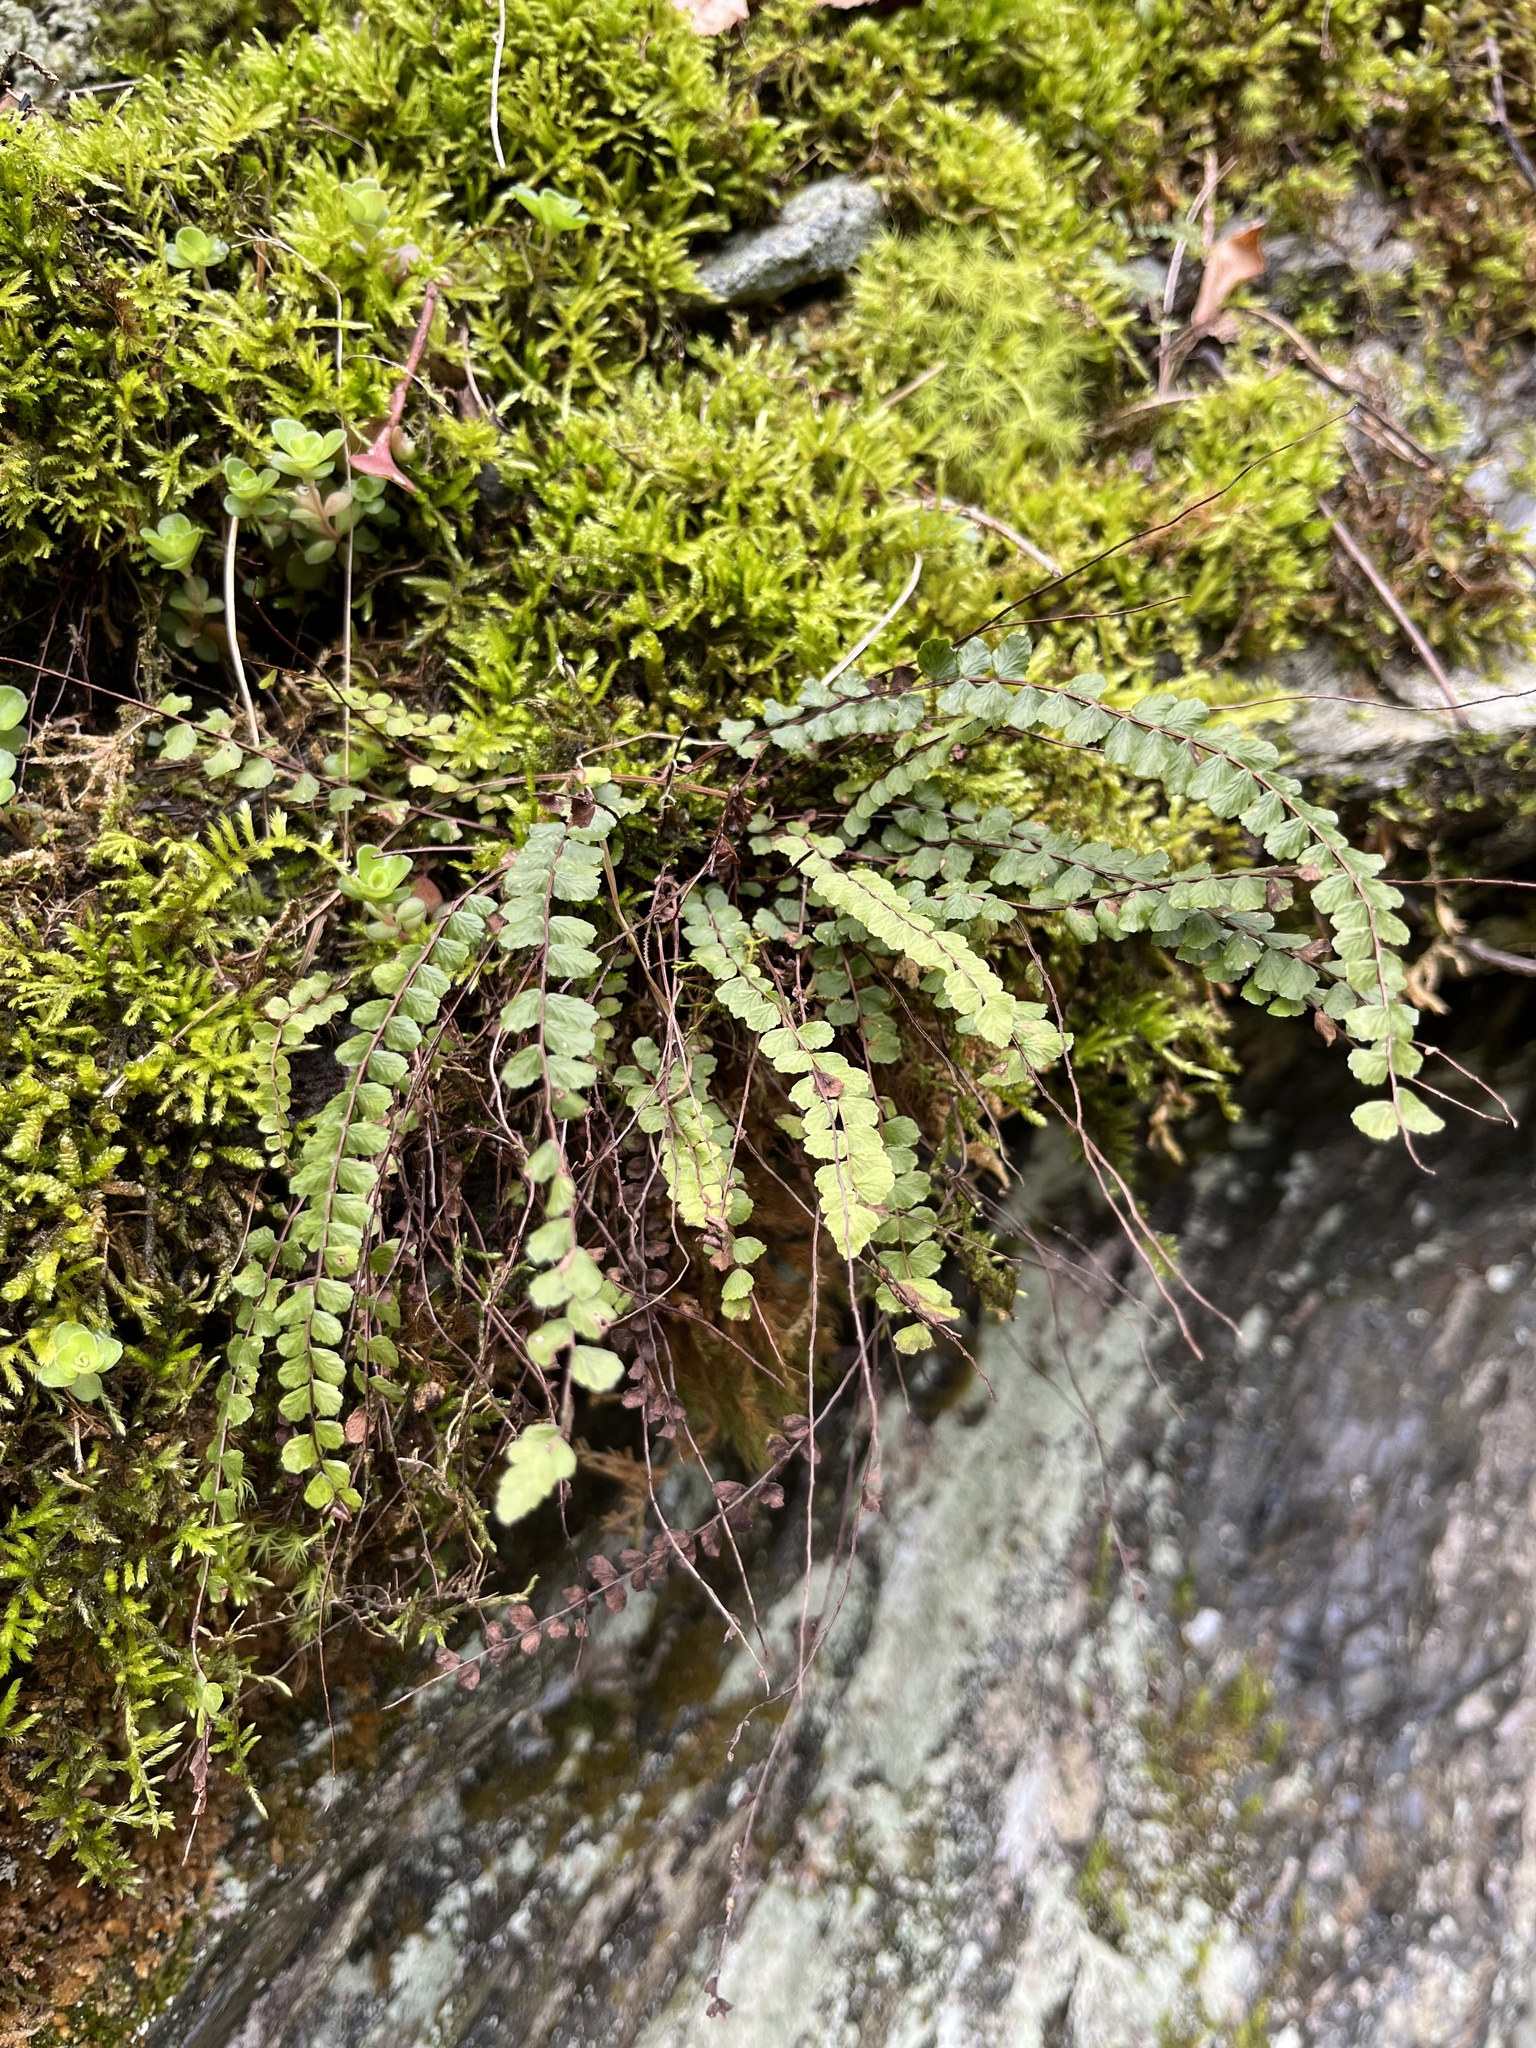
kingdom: Plantae
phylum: Tracheophyta
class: Polypodiopsida
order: Polypodiales
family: Aspleniaceae
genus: Asplenium
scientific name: Asplenium trichomanes
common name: Maidenhair spleenwort
